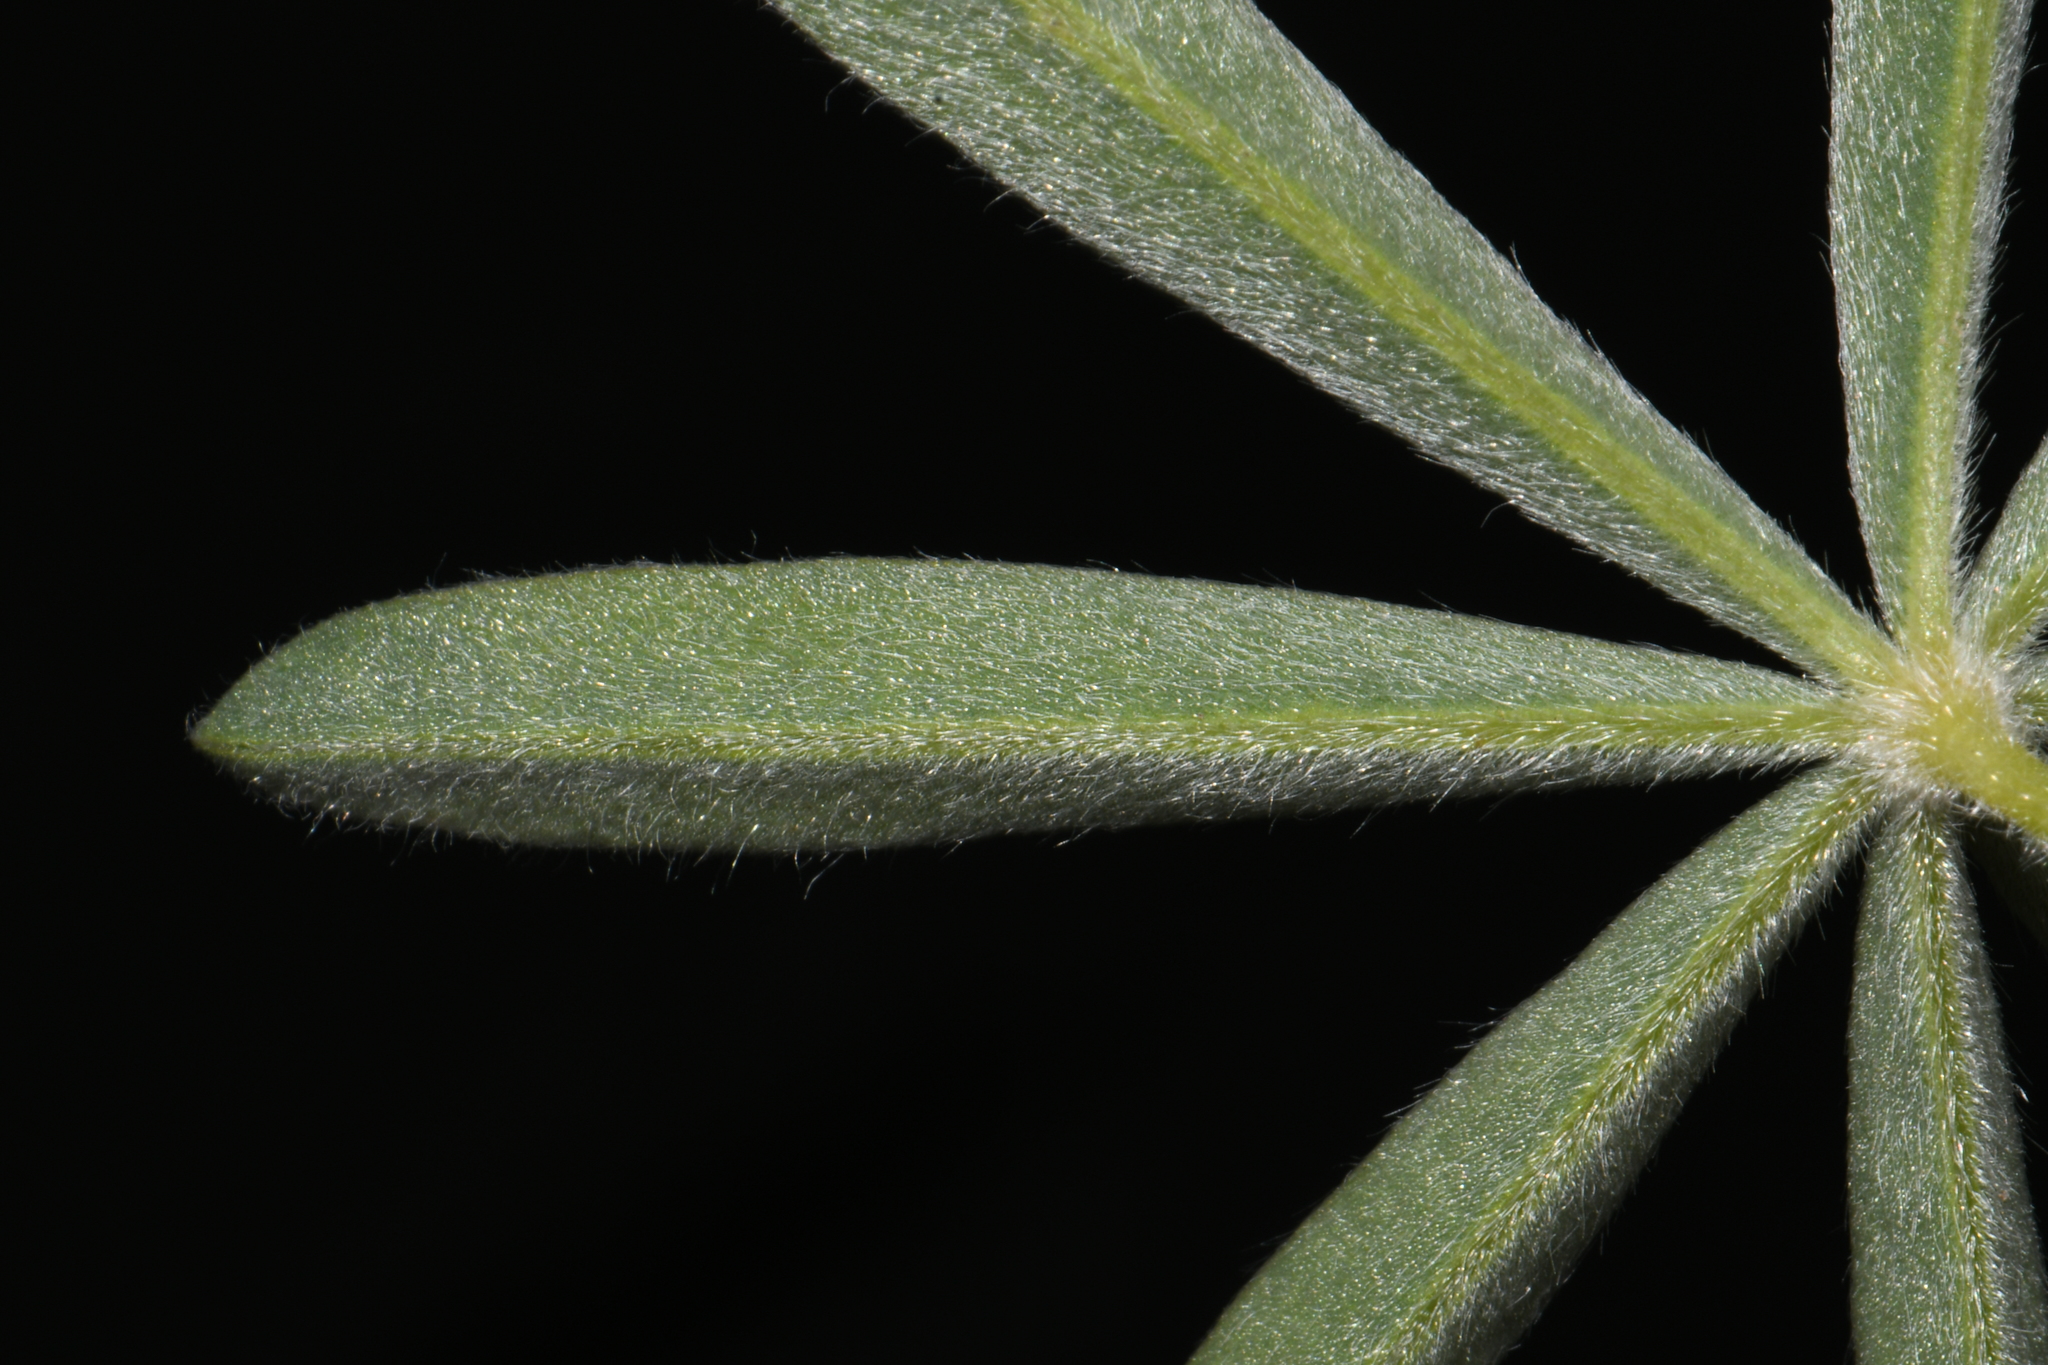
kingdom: Plantae
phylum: Tracheophyta
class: Magnoliopsida
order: Fabales
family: Fabaceae
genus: Lupinus
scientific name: Lupinus argenteus
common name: Silvery lupine
